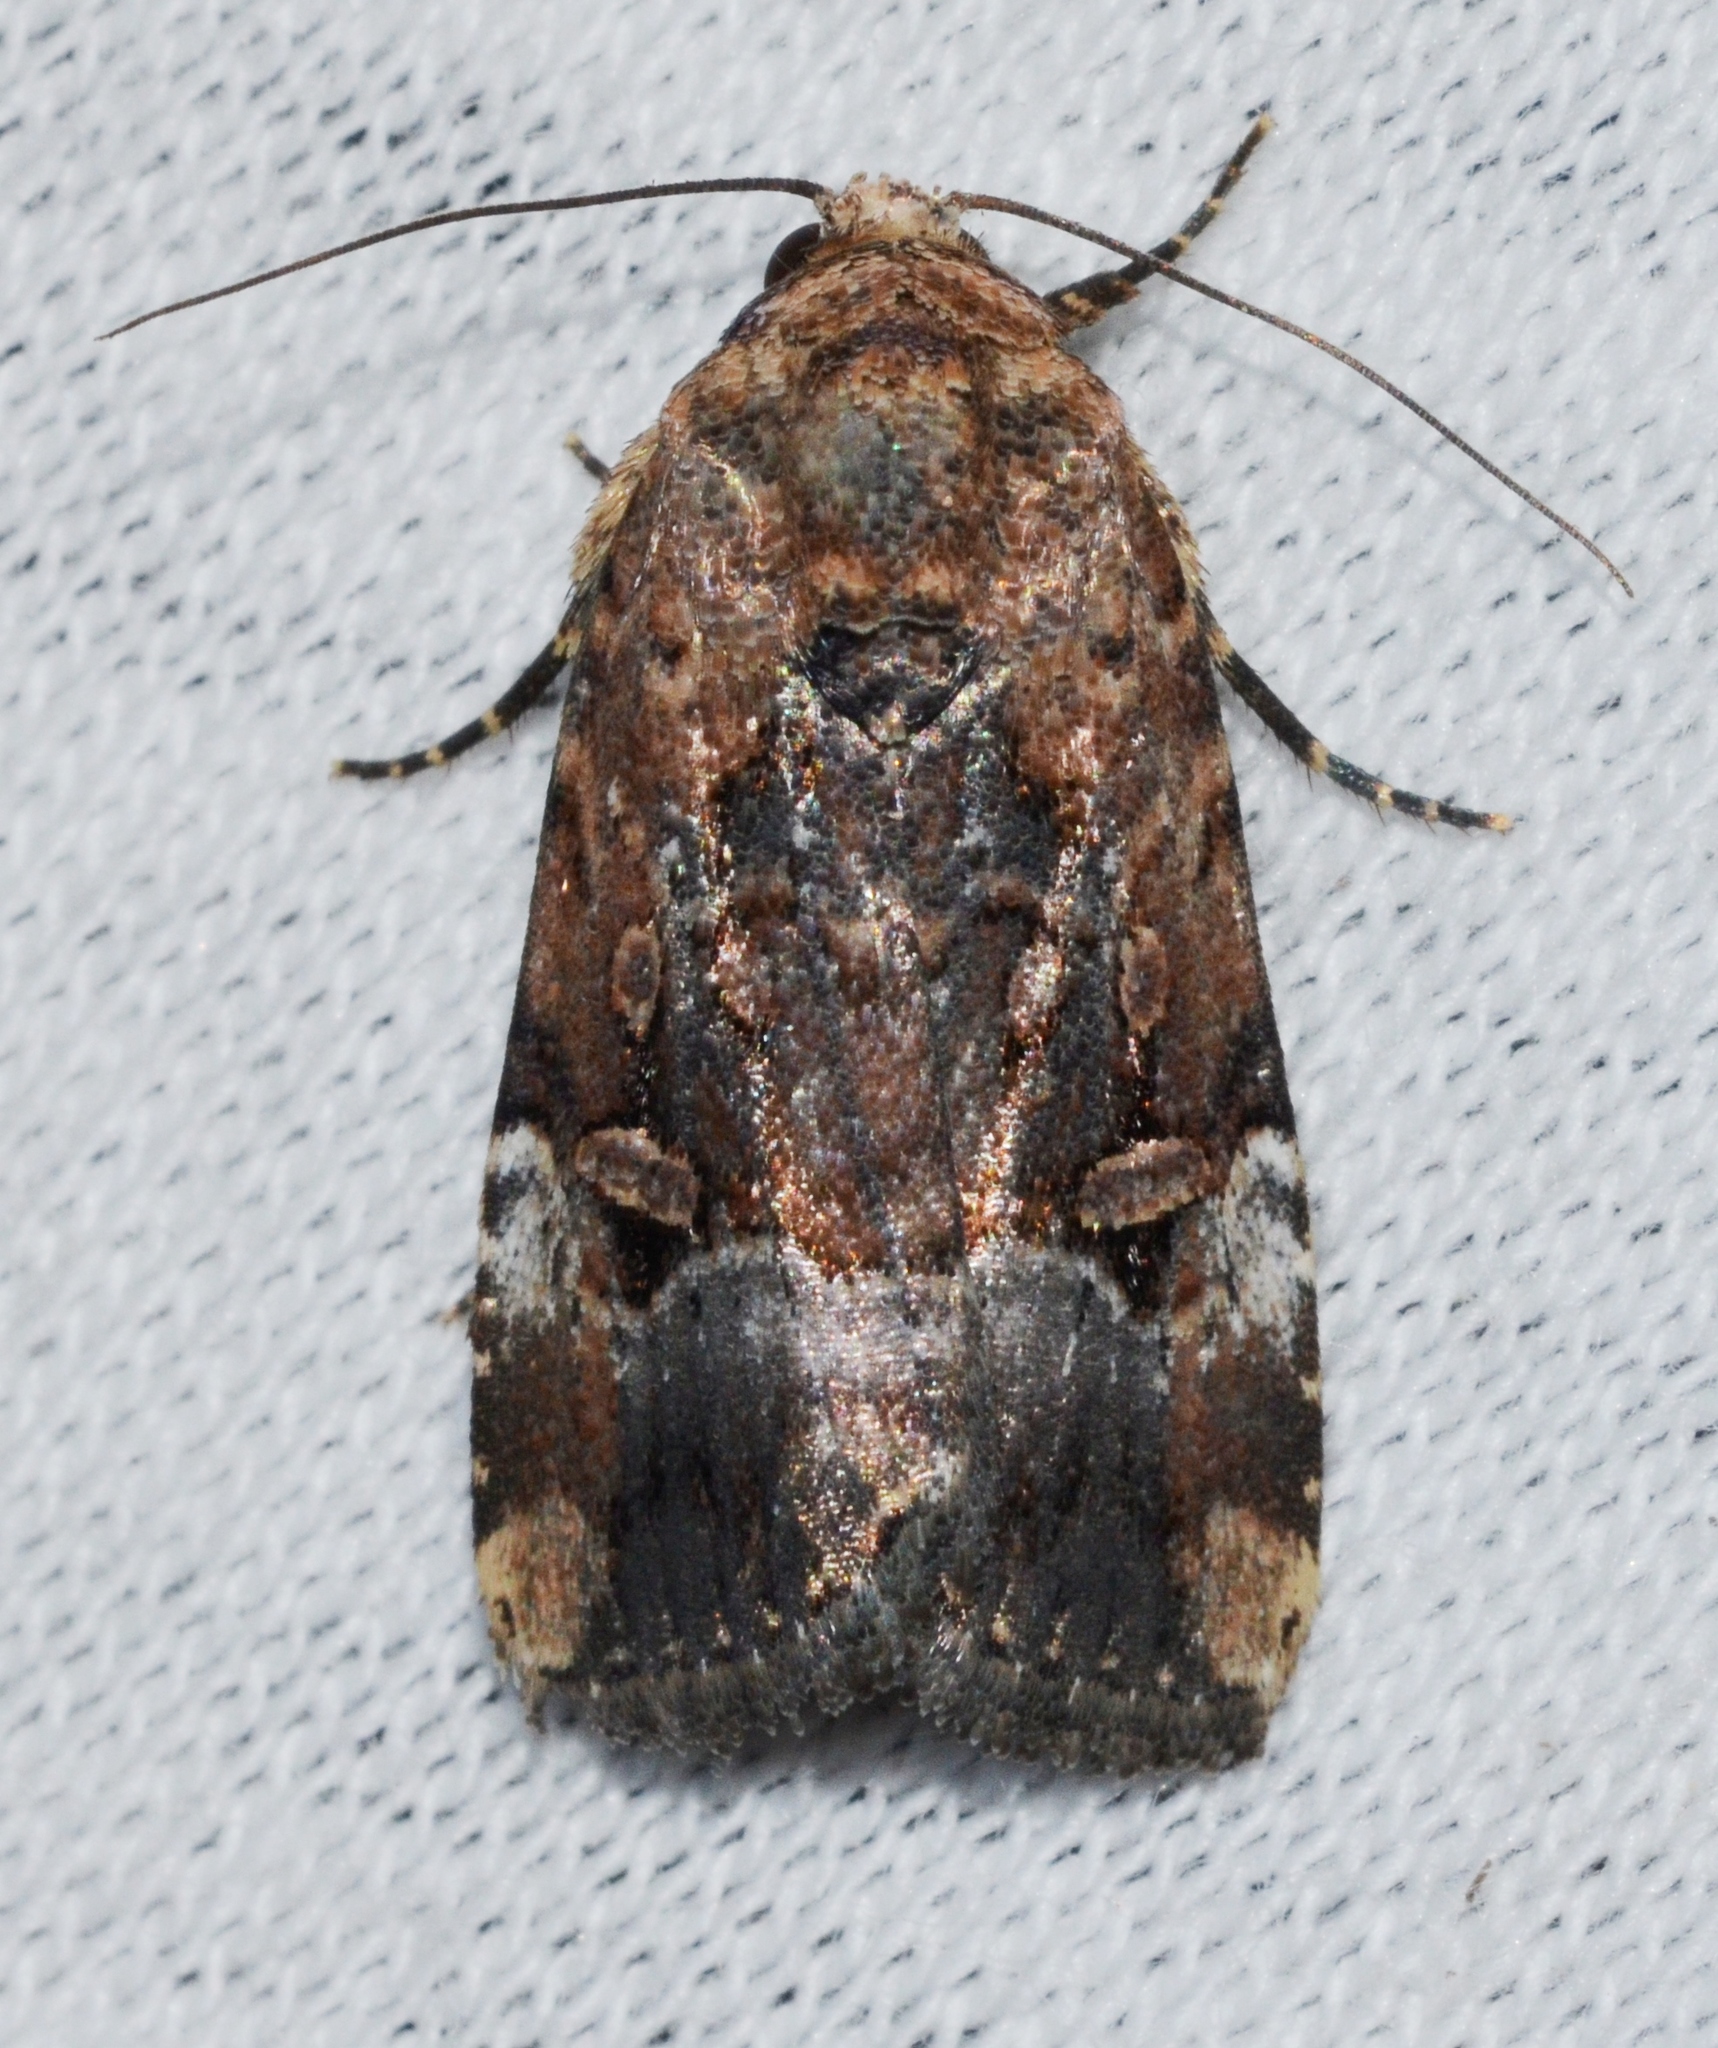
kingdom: Animalia
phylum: Arthropoda
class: Insecta
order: Lepidoptera
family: Noctuidae
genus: Elaphria
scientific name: Elaphria chalcedonia
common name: Chalcedony midget
